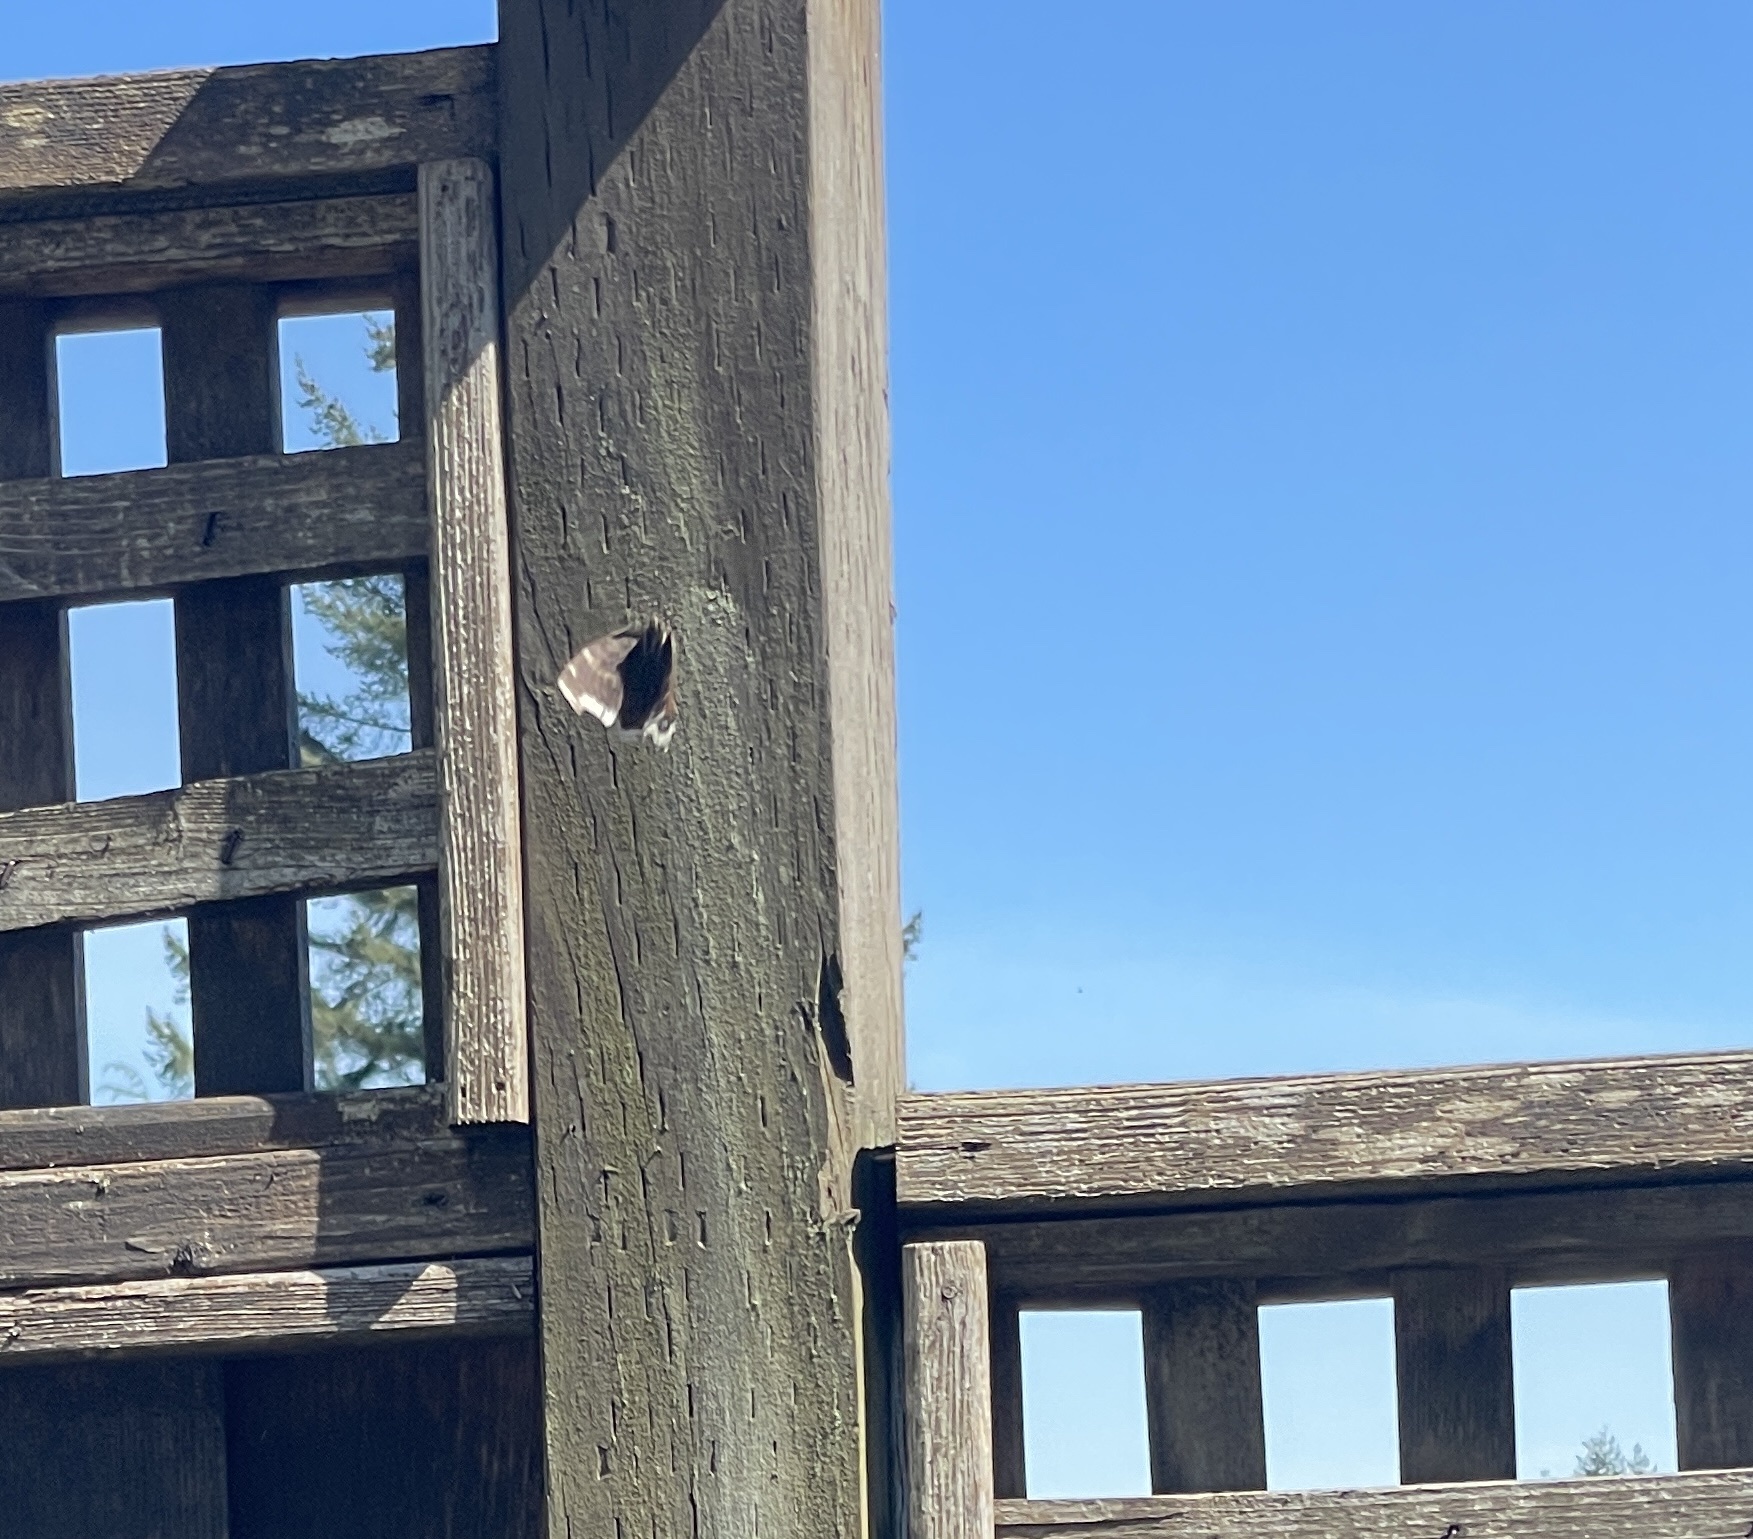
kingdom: Animalia
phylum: Arthropoda
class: Insecta
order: Lepidoptera
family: Nymphalidae
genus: Nymphalis
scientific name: Nymphalis antiopa
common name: Camberwell beauty
